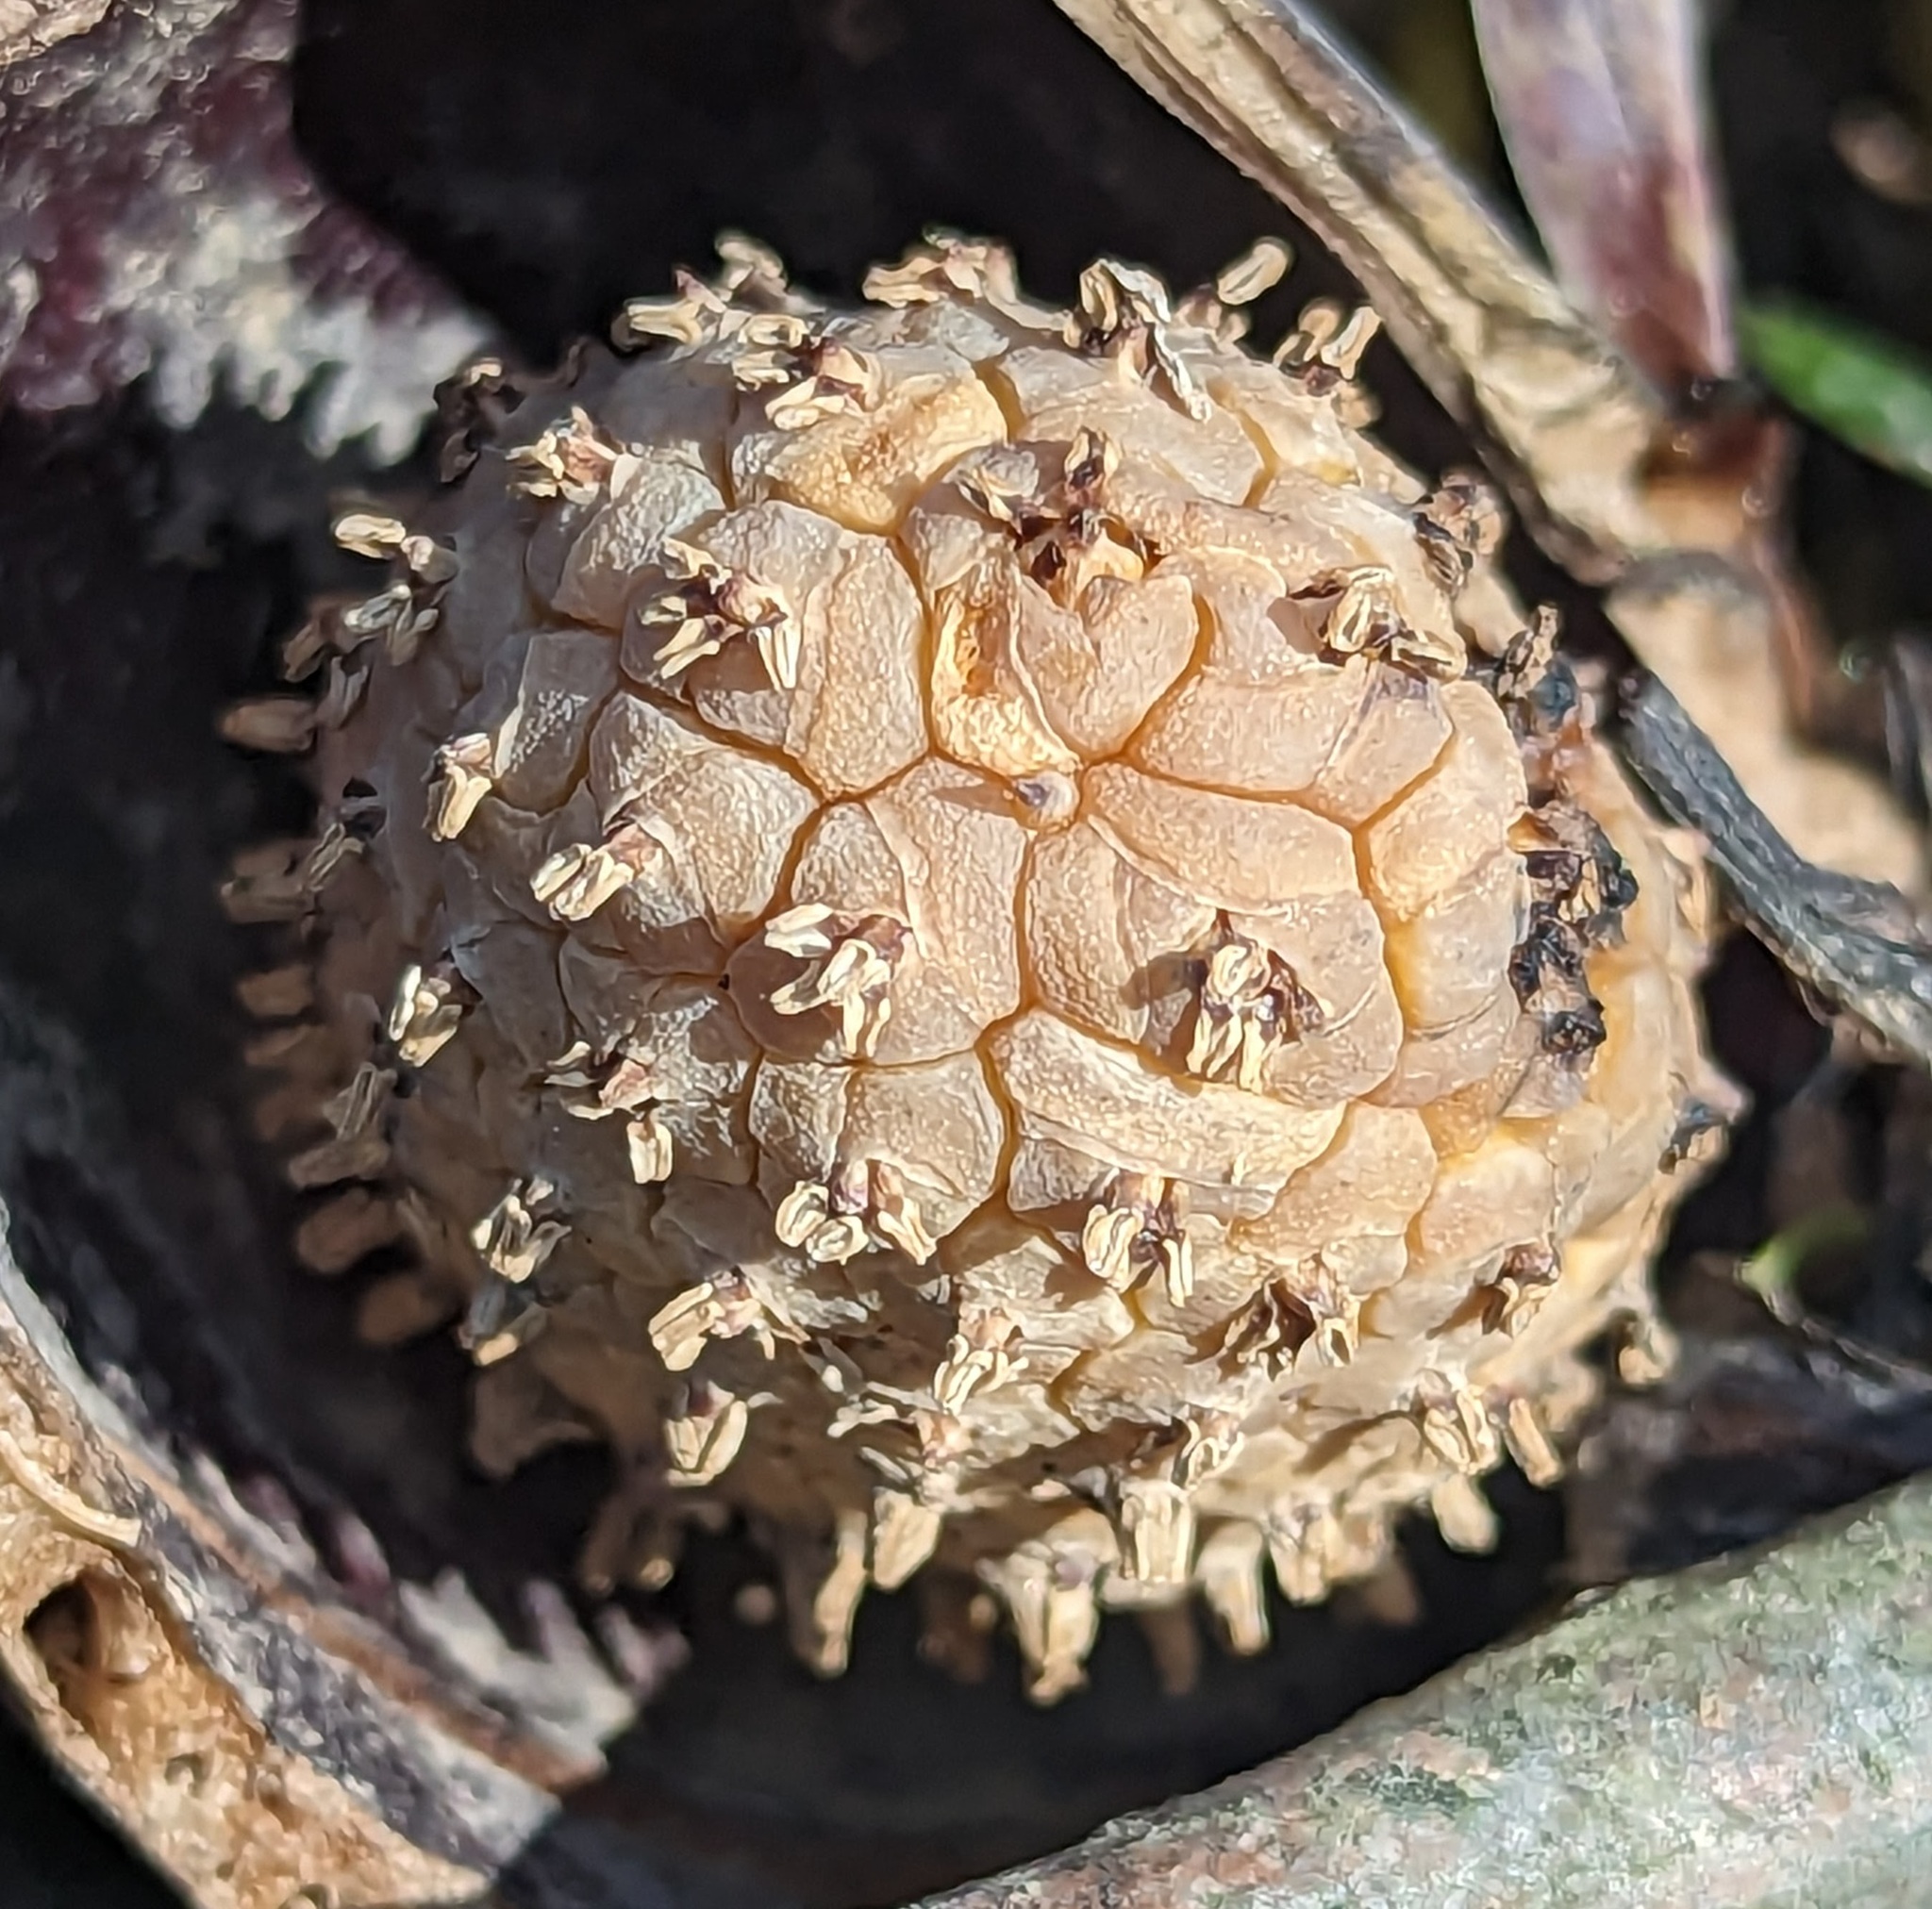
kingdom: Plantae
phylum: Tracheophyta
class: Liliopsida
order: Alismatales
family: Araceae
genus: Symplocarpus
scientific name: Symplocarpus foetidus
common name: Eastern skunk cabbage
